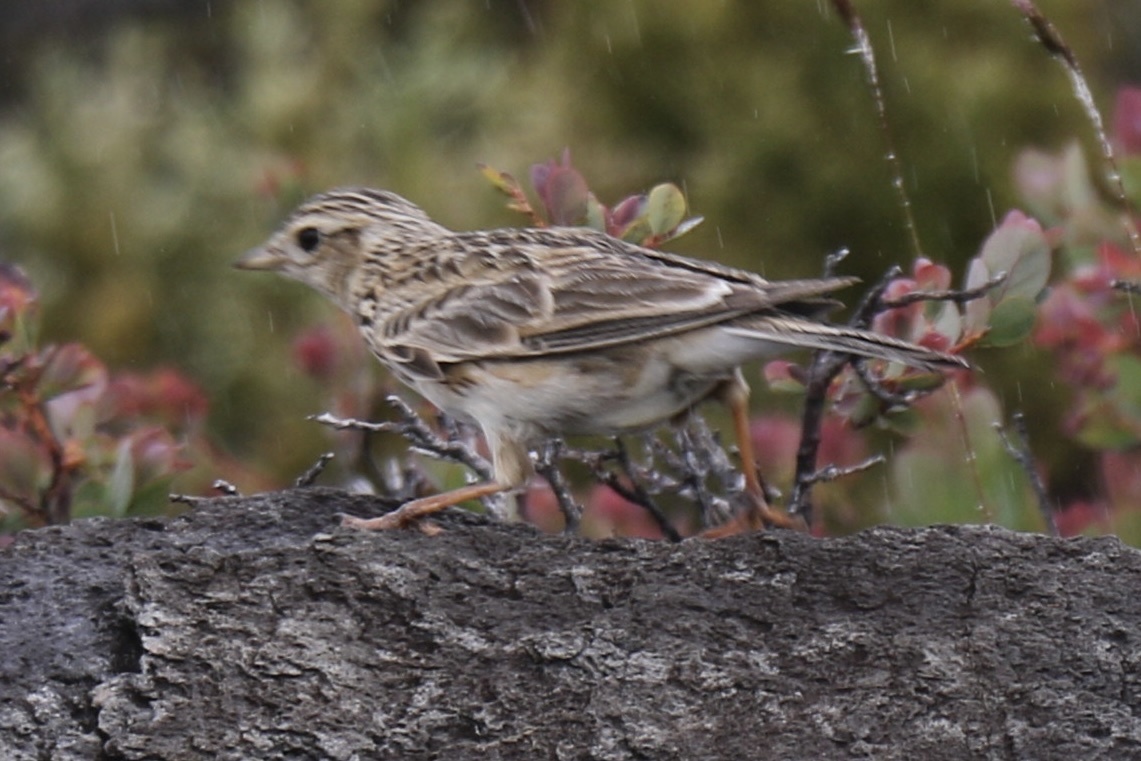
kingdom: Animalia
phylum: Chordata
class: Aves
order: Passeriformes
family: Alaudidae
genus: Alauda
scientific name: Alauda arvensis
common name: Eurasian skylark
